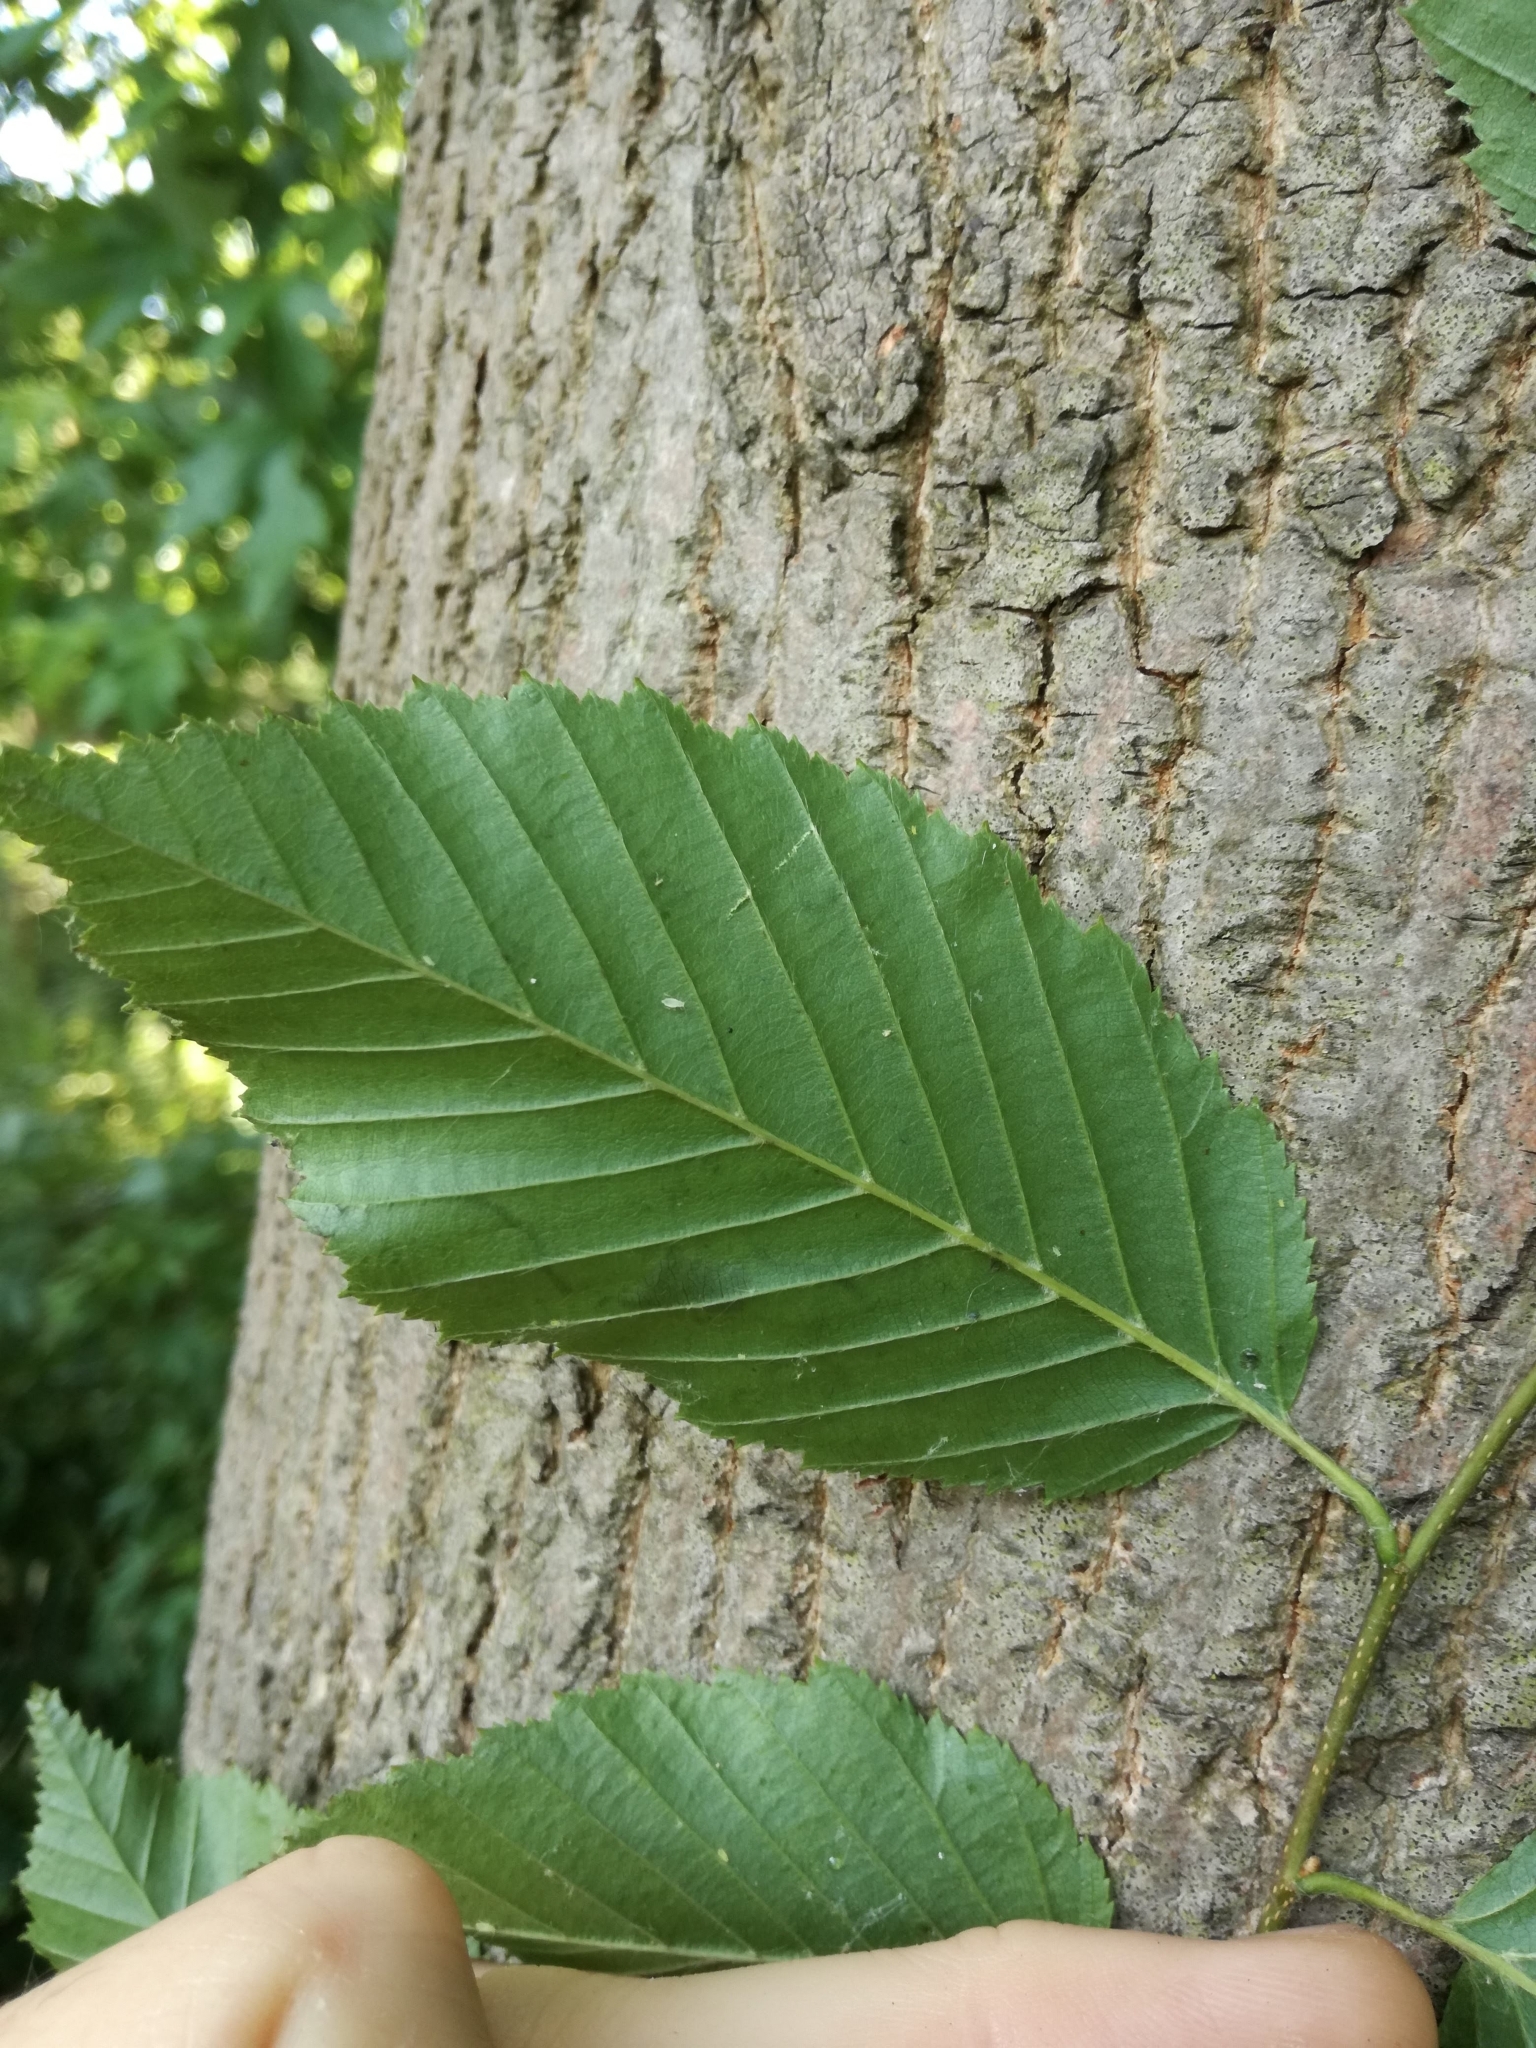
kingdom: Plantae
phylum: Tracheophyta
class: Magnoliopsida
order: Fagales
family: Betulaceae
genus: Carpinus
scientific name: Carpinus betulus
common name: Hornbeam
